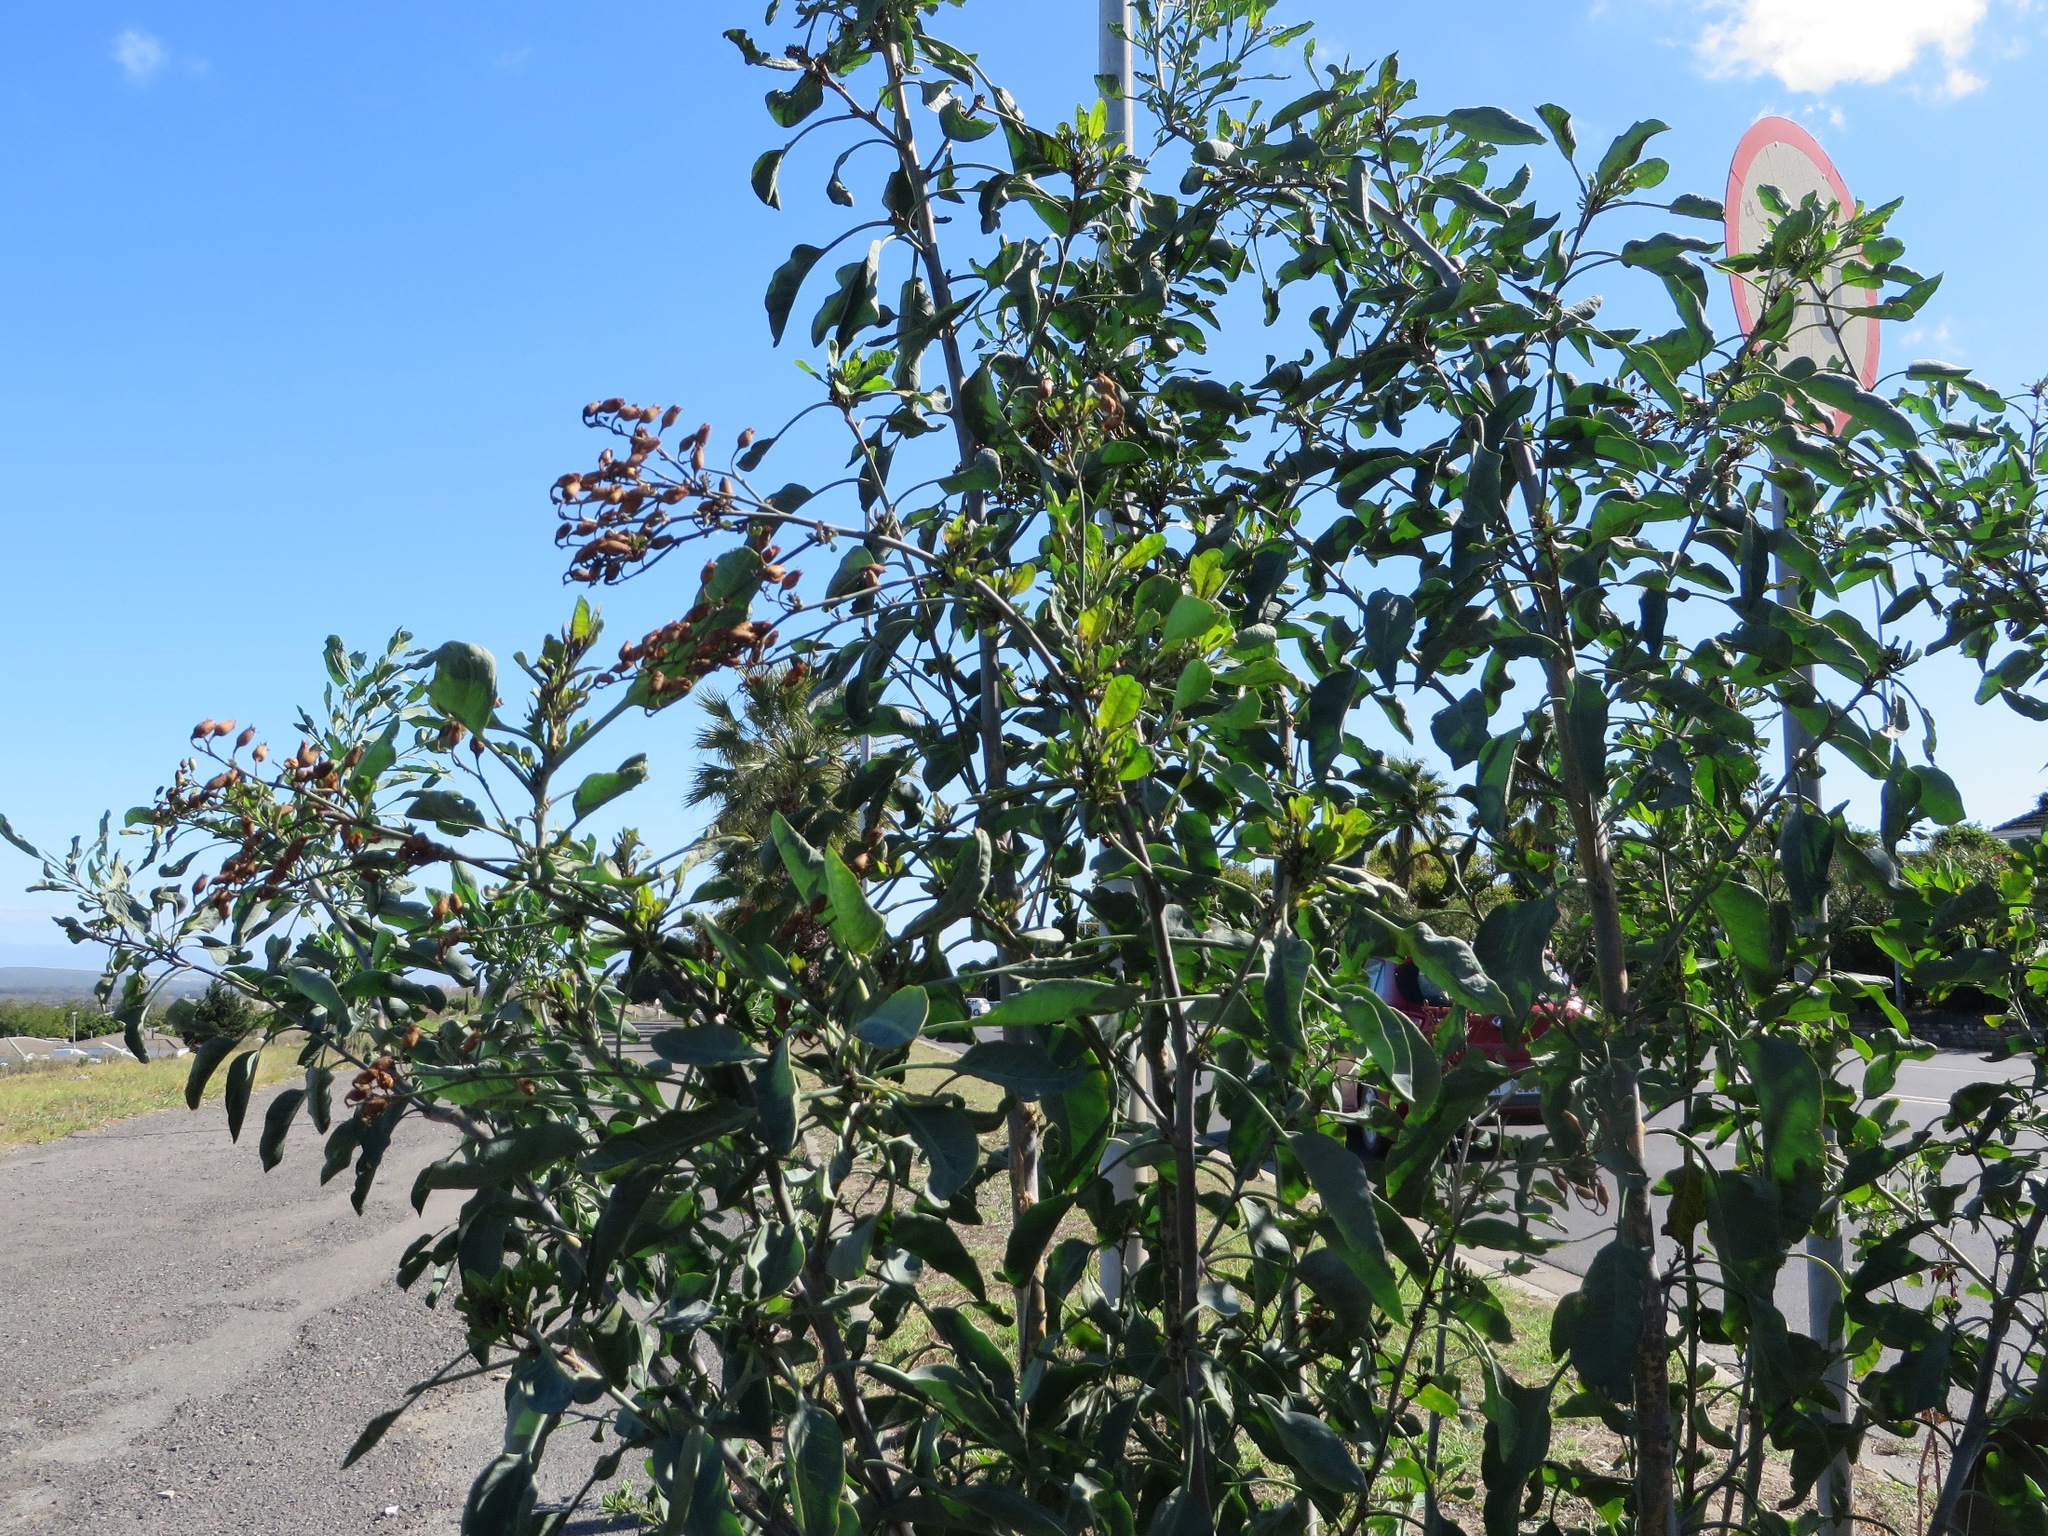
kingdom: Plantae
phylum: Tracheophyta
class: Magnoliopsida
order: Solanales
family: Solanaceae
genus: Nicotiana
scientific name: Nicotiana glauca
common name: Tree tobacco
